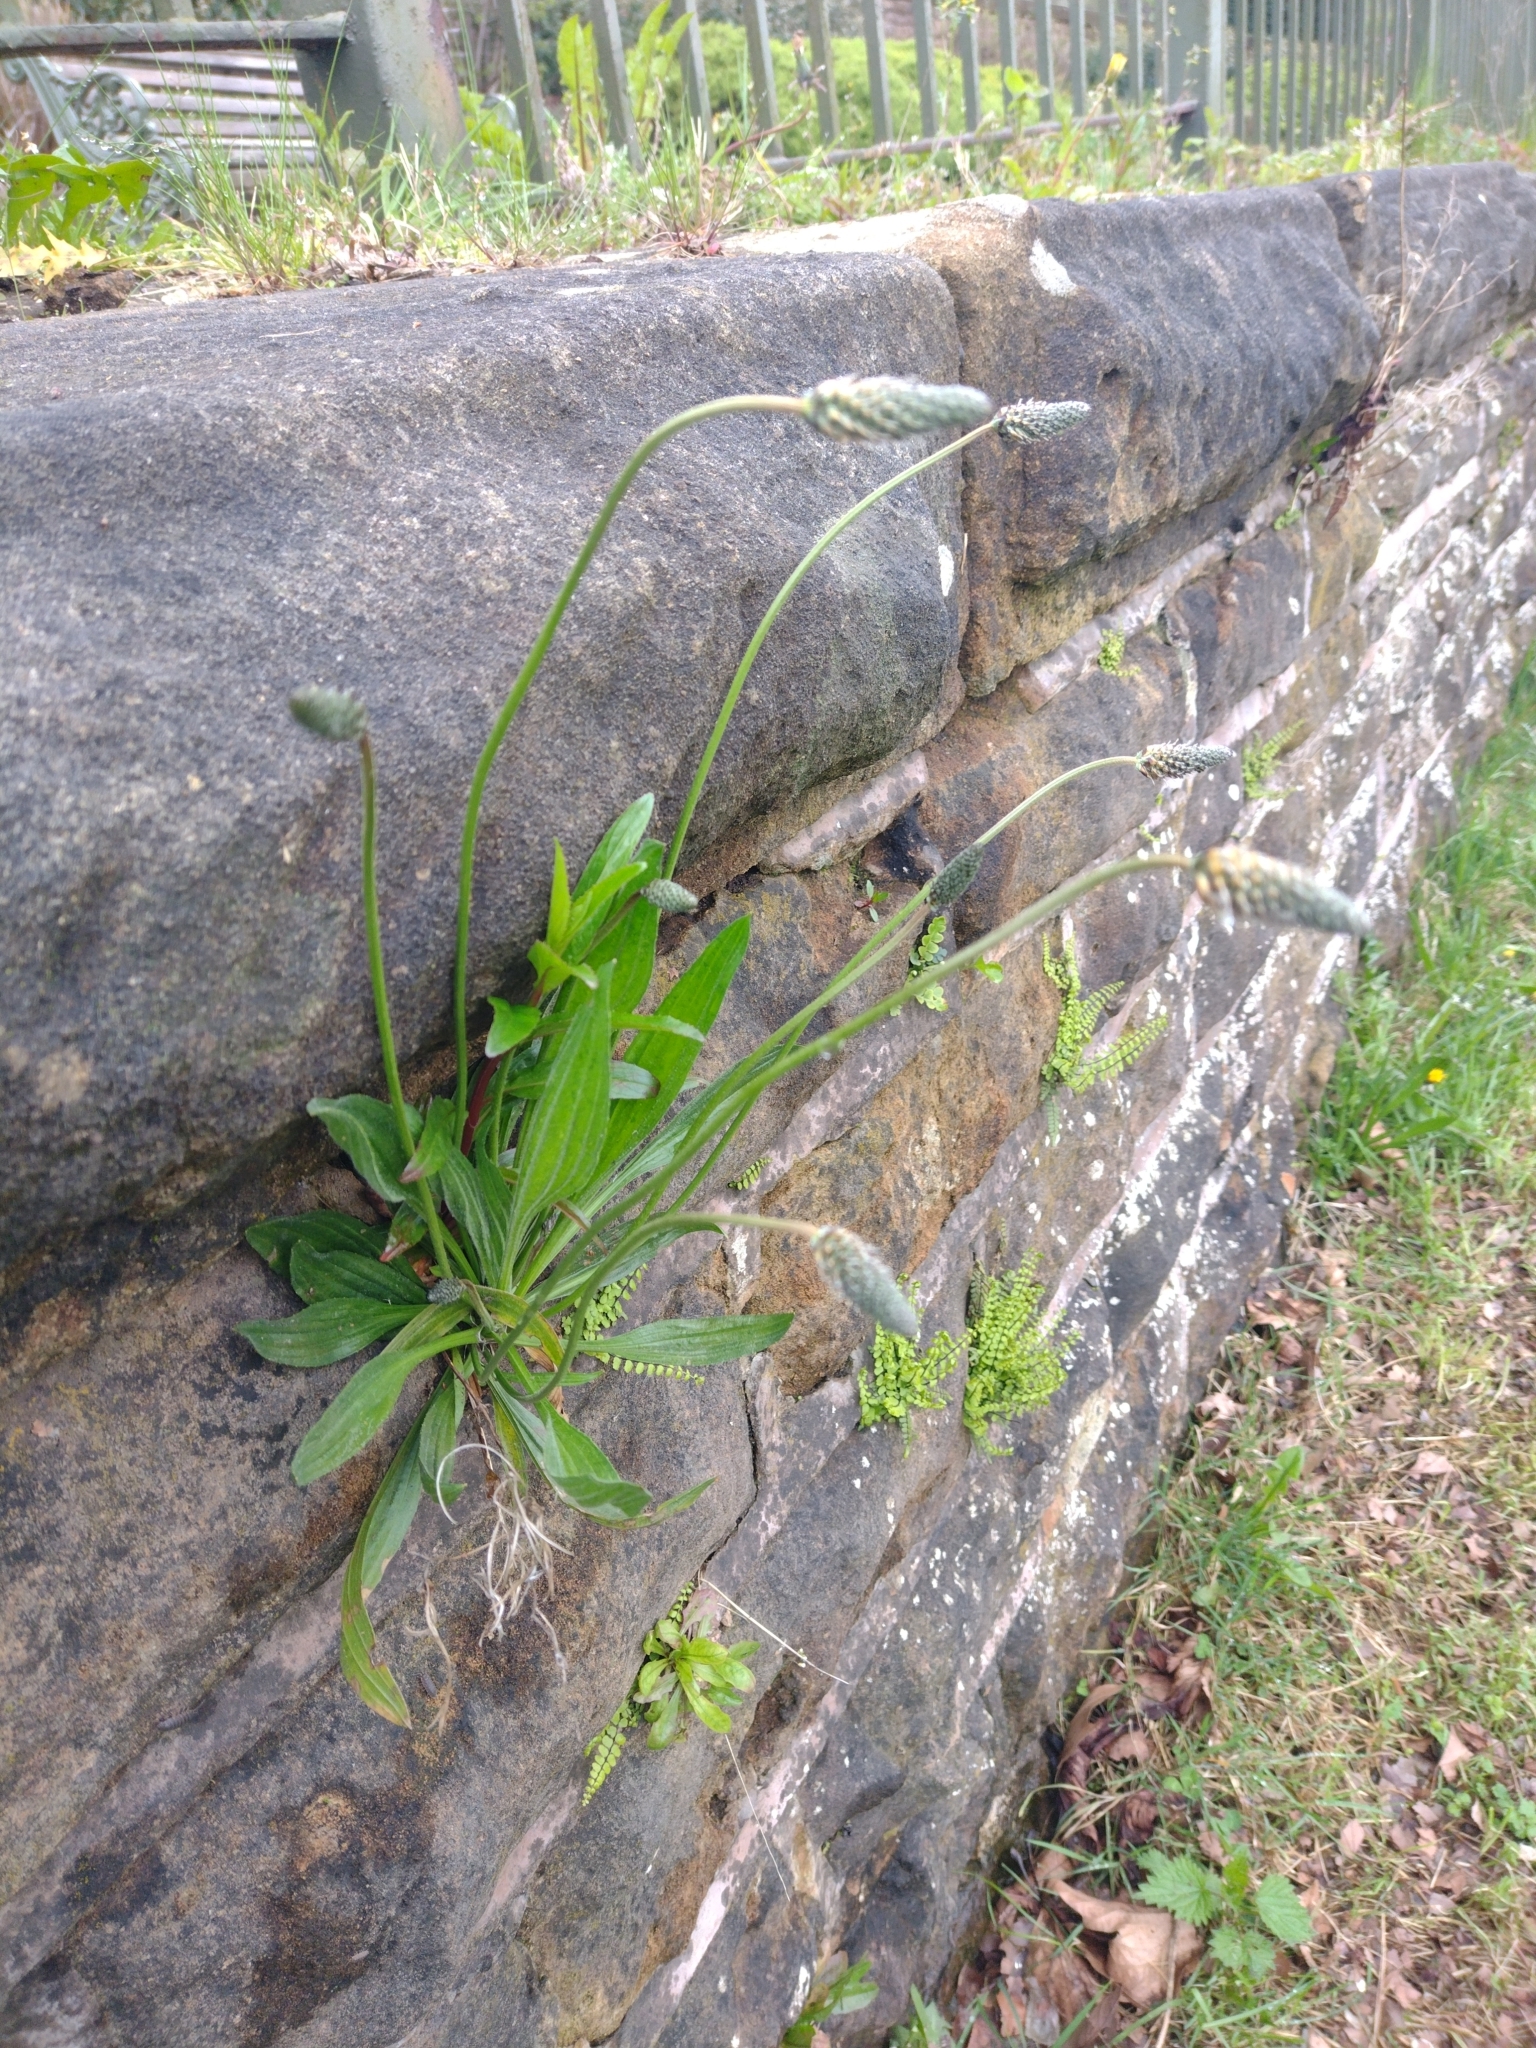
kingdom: Plantae
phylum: Tracheophyta
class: Magnoliopsida
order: Lamiales
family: Plantaginaceae
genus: Plantago
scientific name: Plantago lanceolata
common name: Ribwort plantain
